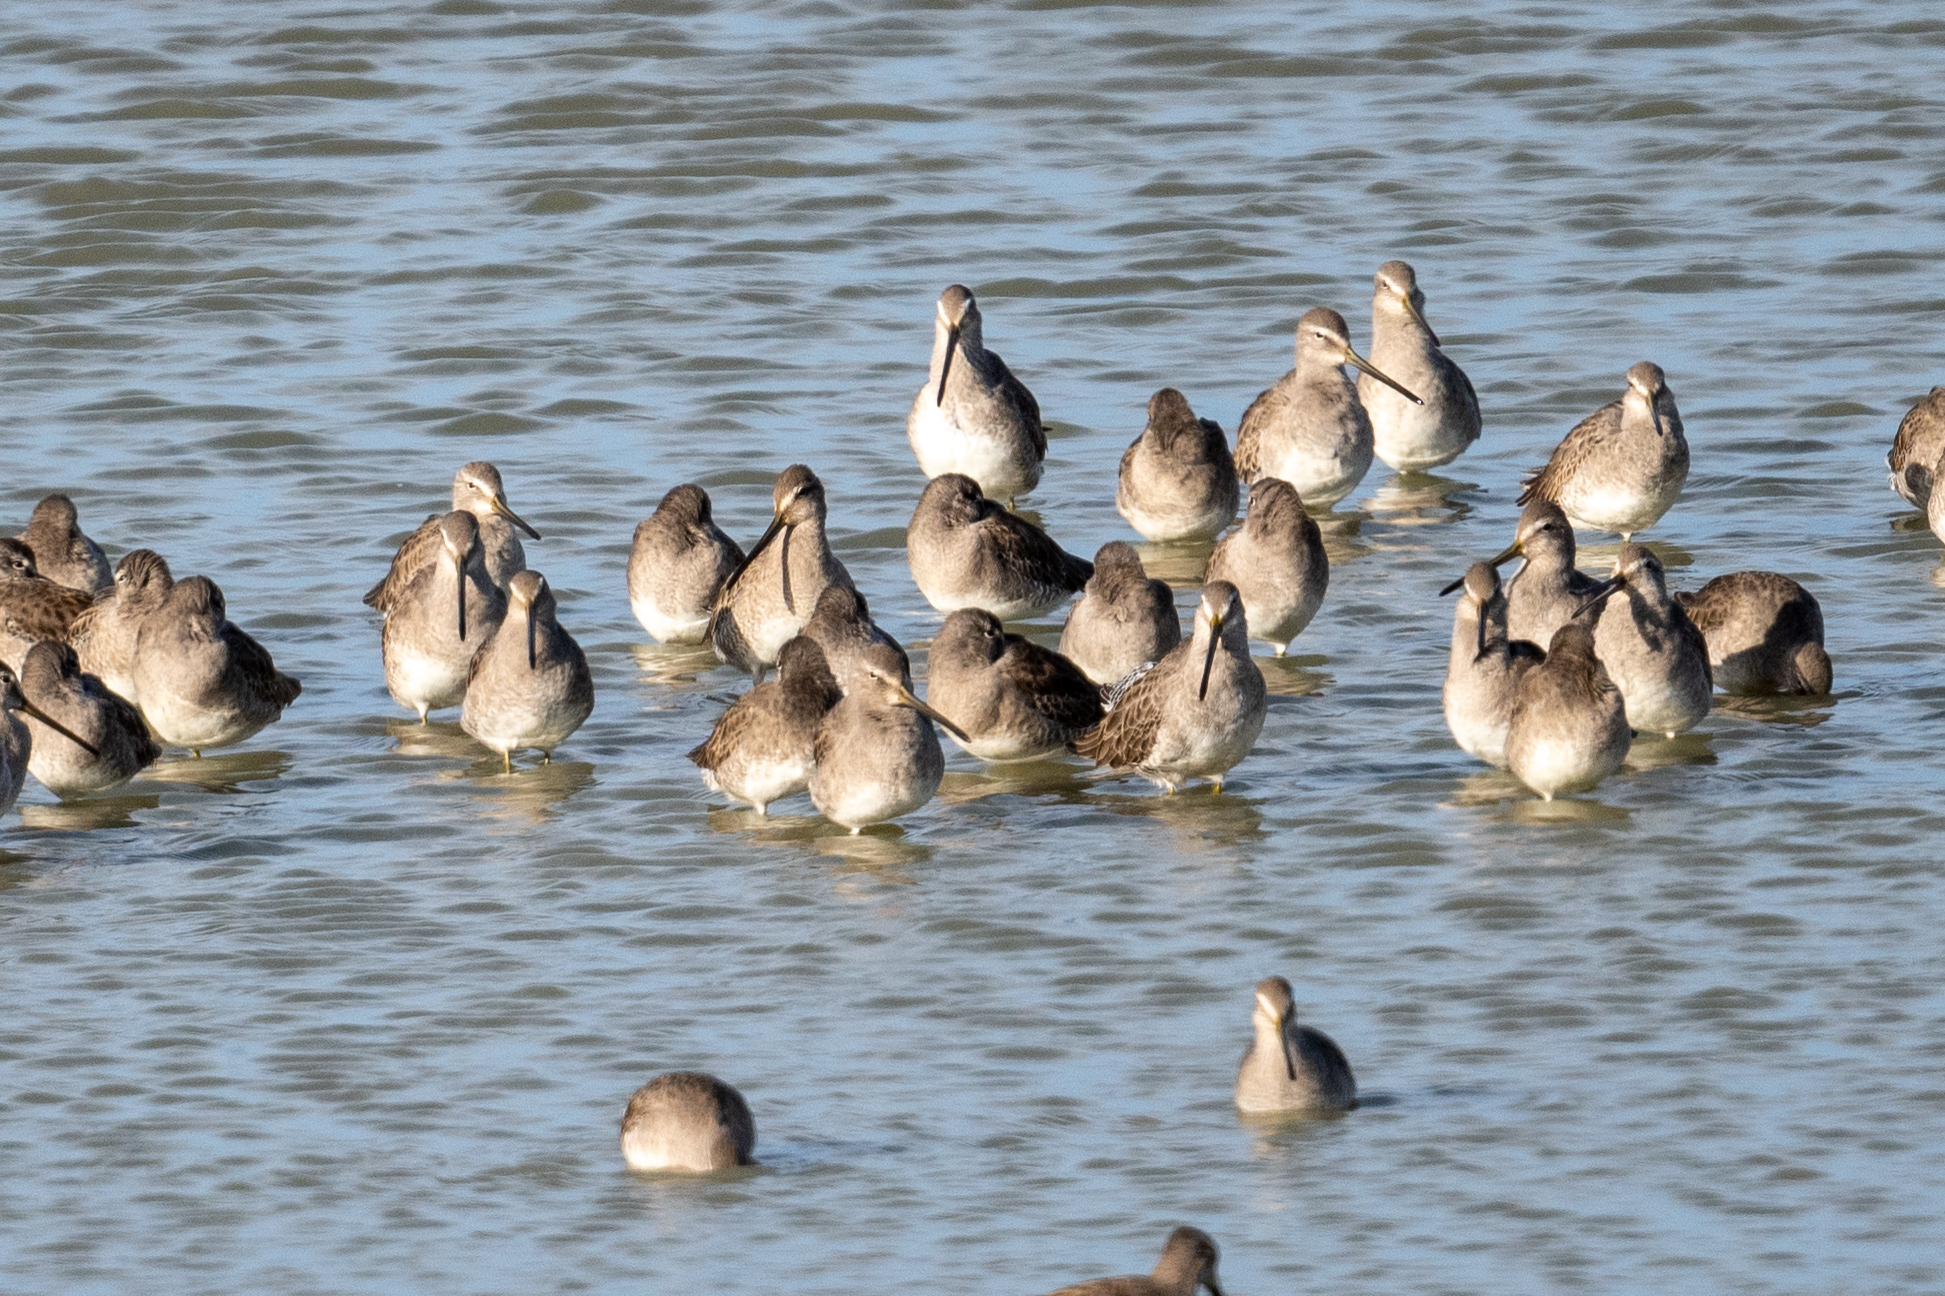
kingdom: Animalia
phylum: Chordata
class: Aves
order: Charadriiformes
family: Scolopacidae
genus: Limnodromus
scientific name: Limnodromus scolopaceus
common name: Long-billed dowitcher
